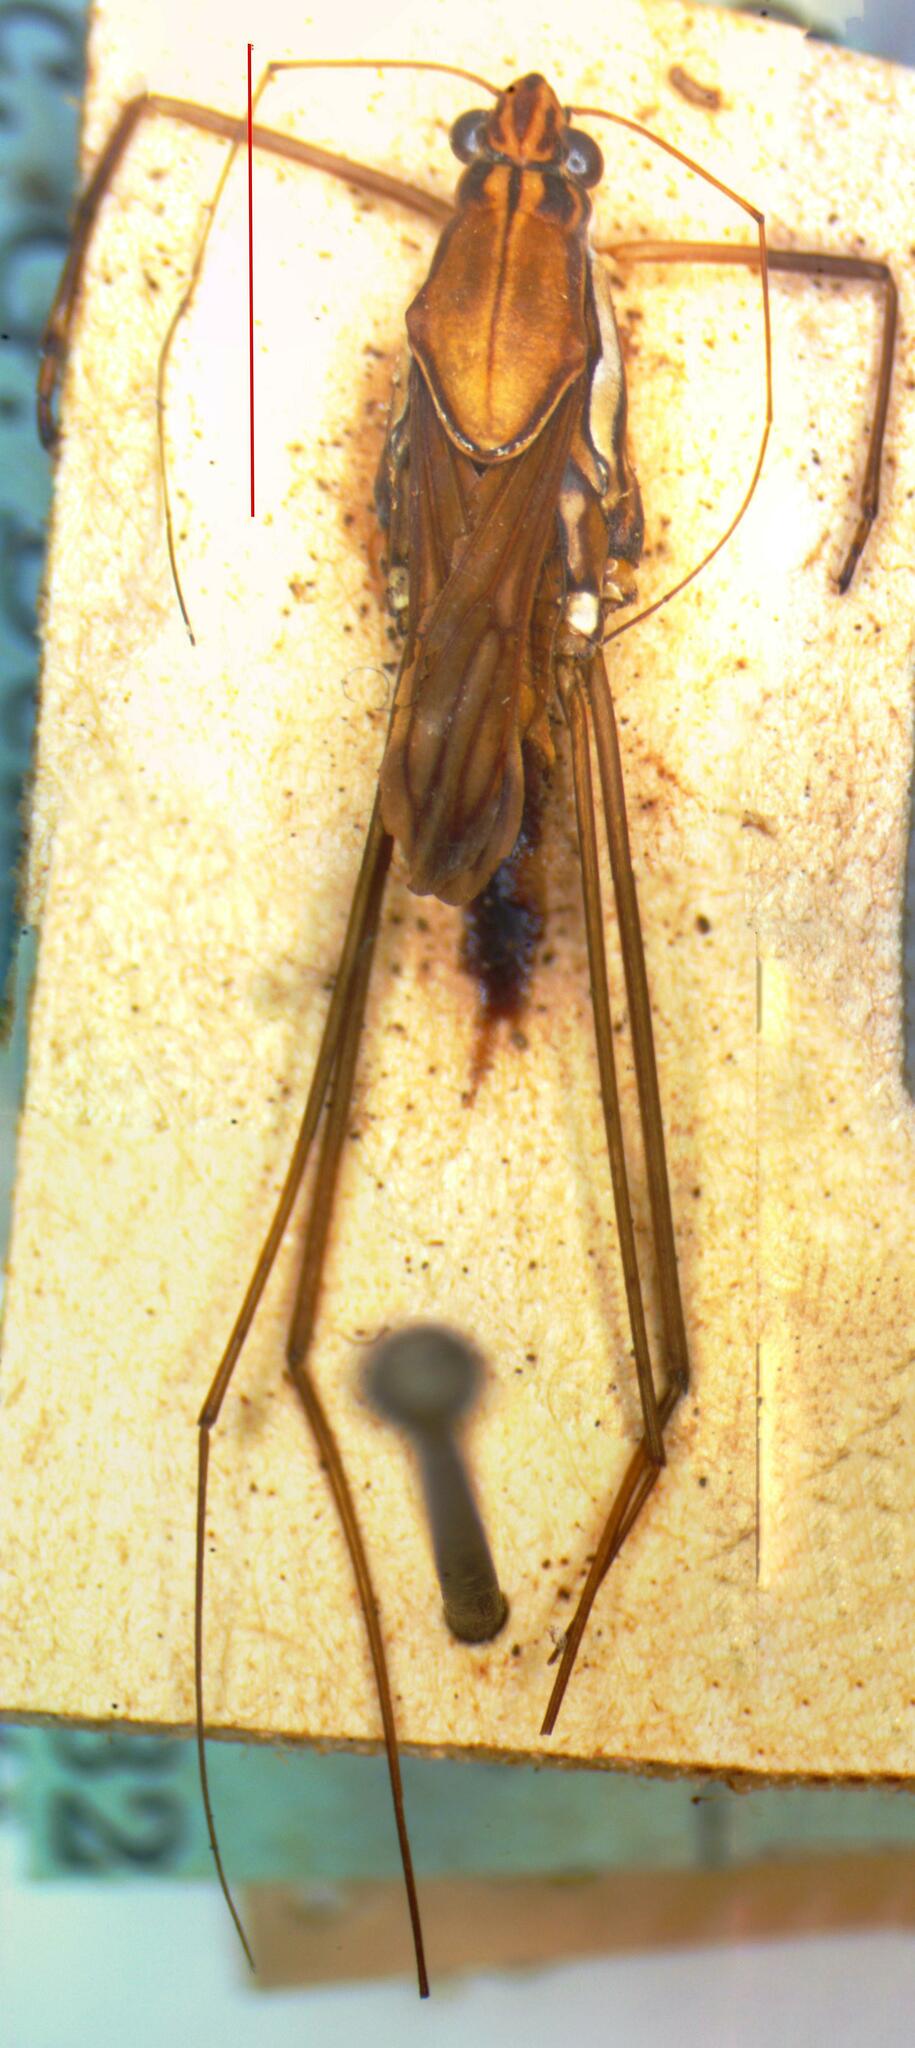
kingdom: Animalia
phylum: Arthropoda
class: Insecta
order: Hemiptera
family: Gerridae
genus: Tenagogonus
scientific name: Tenagogonus
